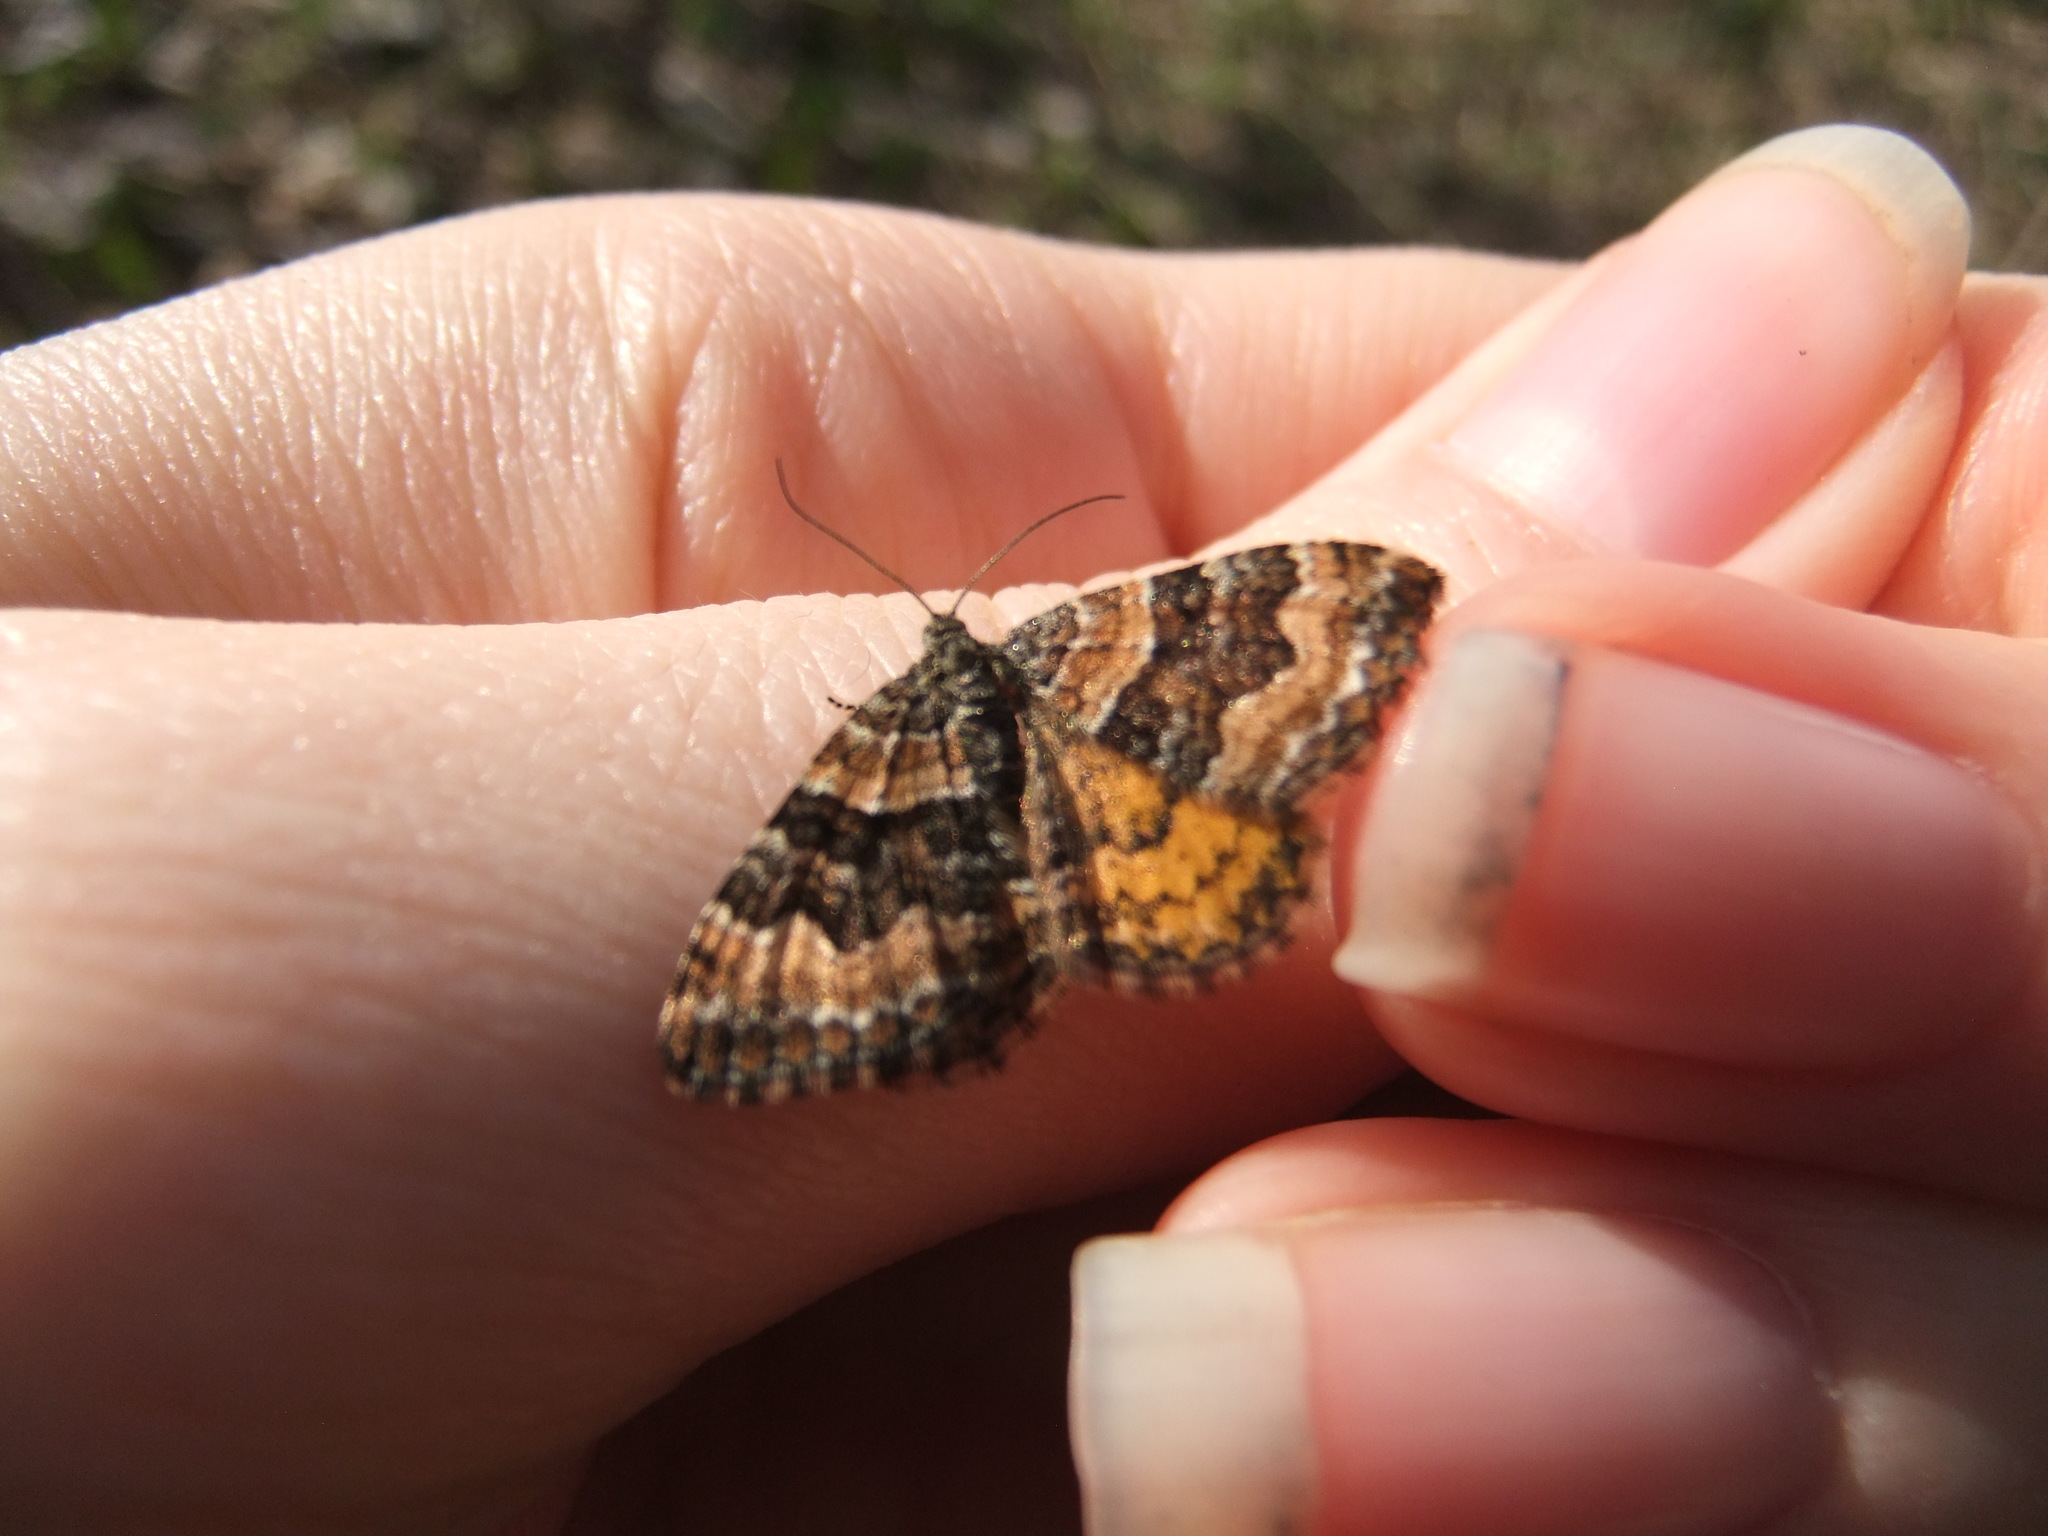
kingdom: Animalia
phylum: Arthropoda
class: Insecta
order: Lepidoptera
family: Geometridae
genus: Epirrhoe
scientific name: Epirrhoe plebeculata
